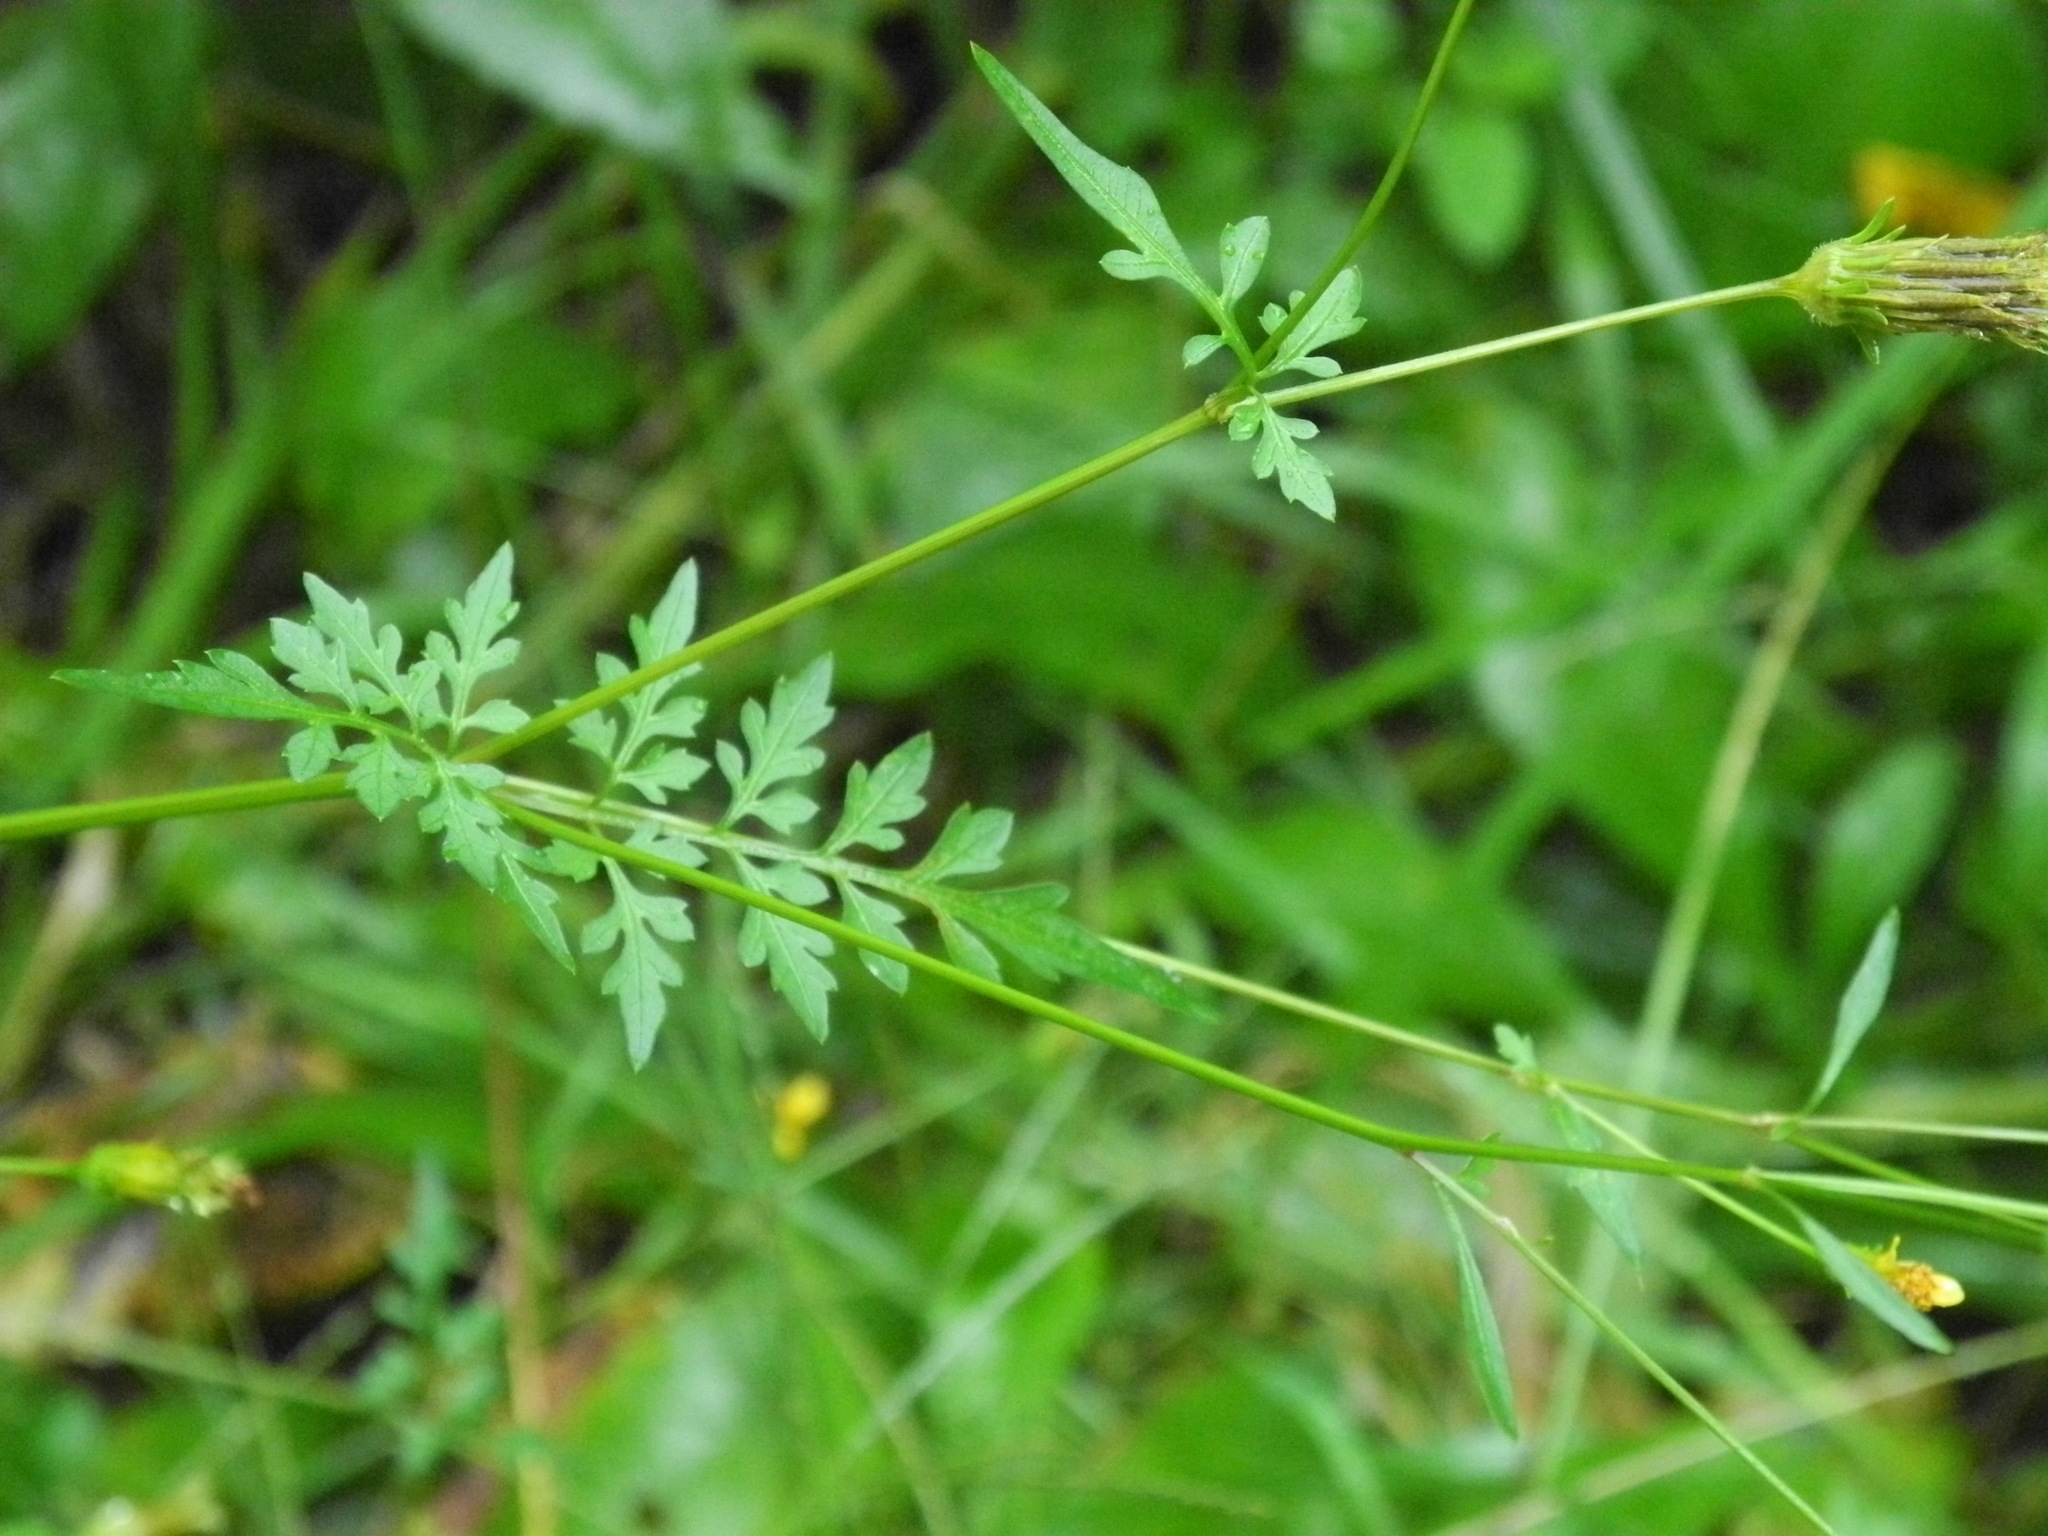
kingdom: Plantae
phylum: Tracheophyta
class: Magnoliopsida
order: Asterales
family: Asteraceae
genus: Bidens
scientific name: Bidens bipinnata
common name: Spanish-needles
